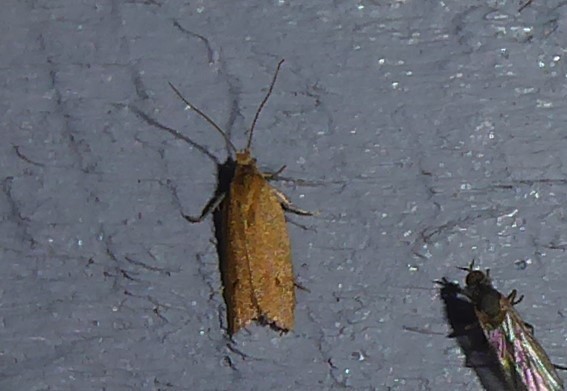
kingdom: Animalia
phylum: Arthropoda
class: Insecta
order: Lepidoptera
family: Tortricidae
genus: Epichorista
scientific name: Epichorista siriana
